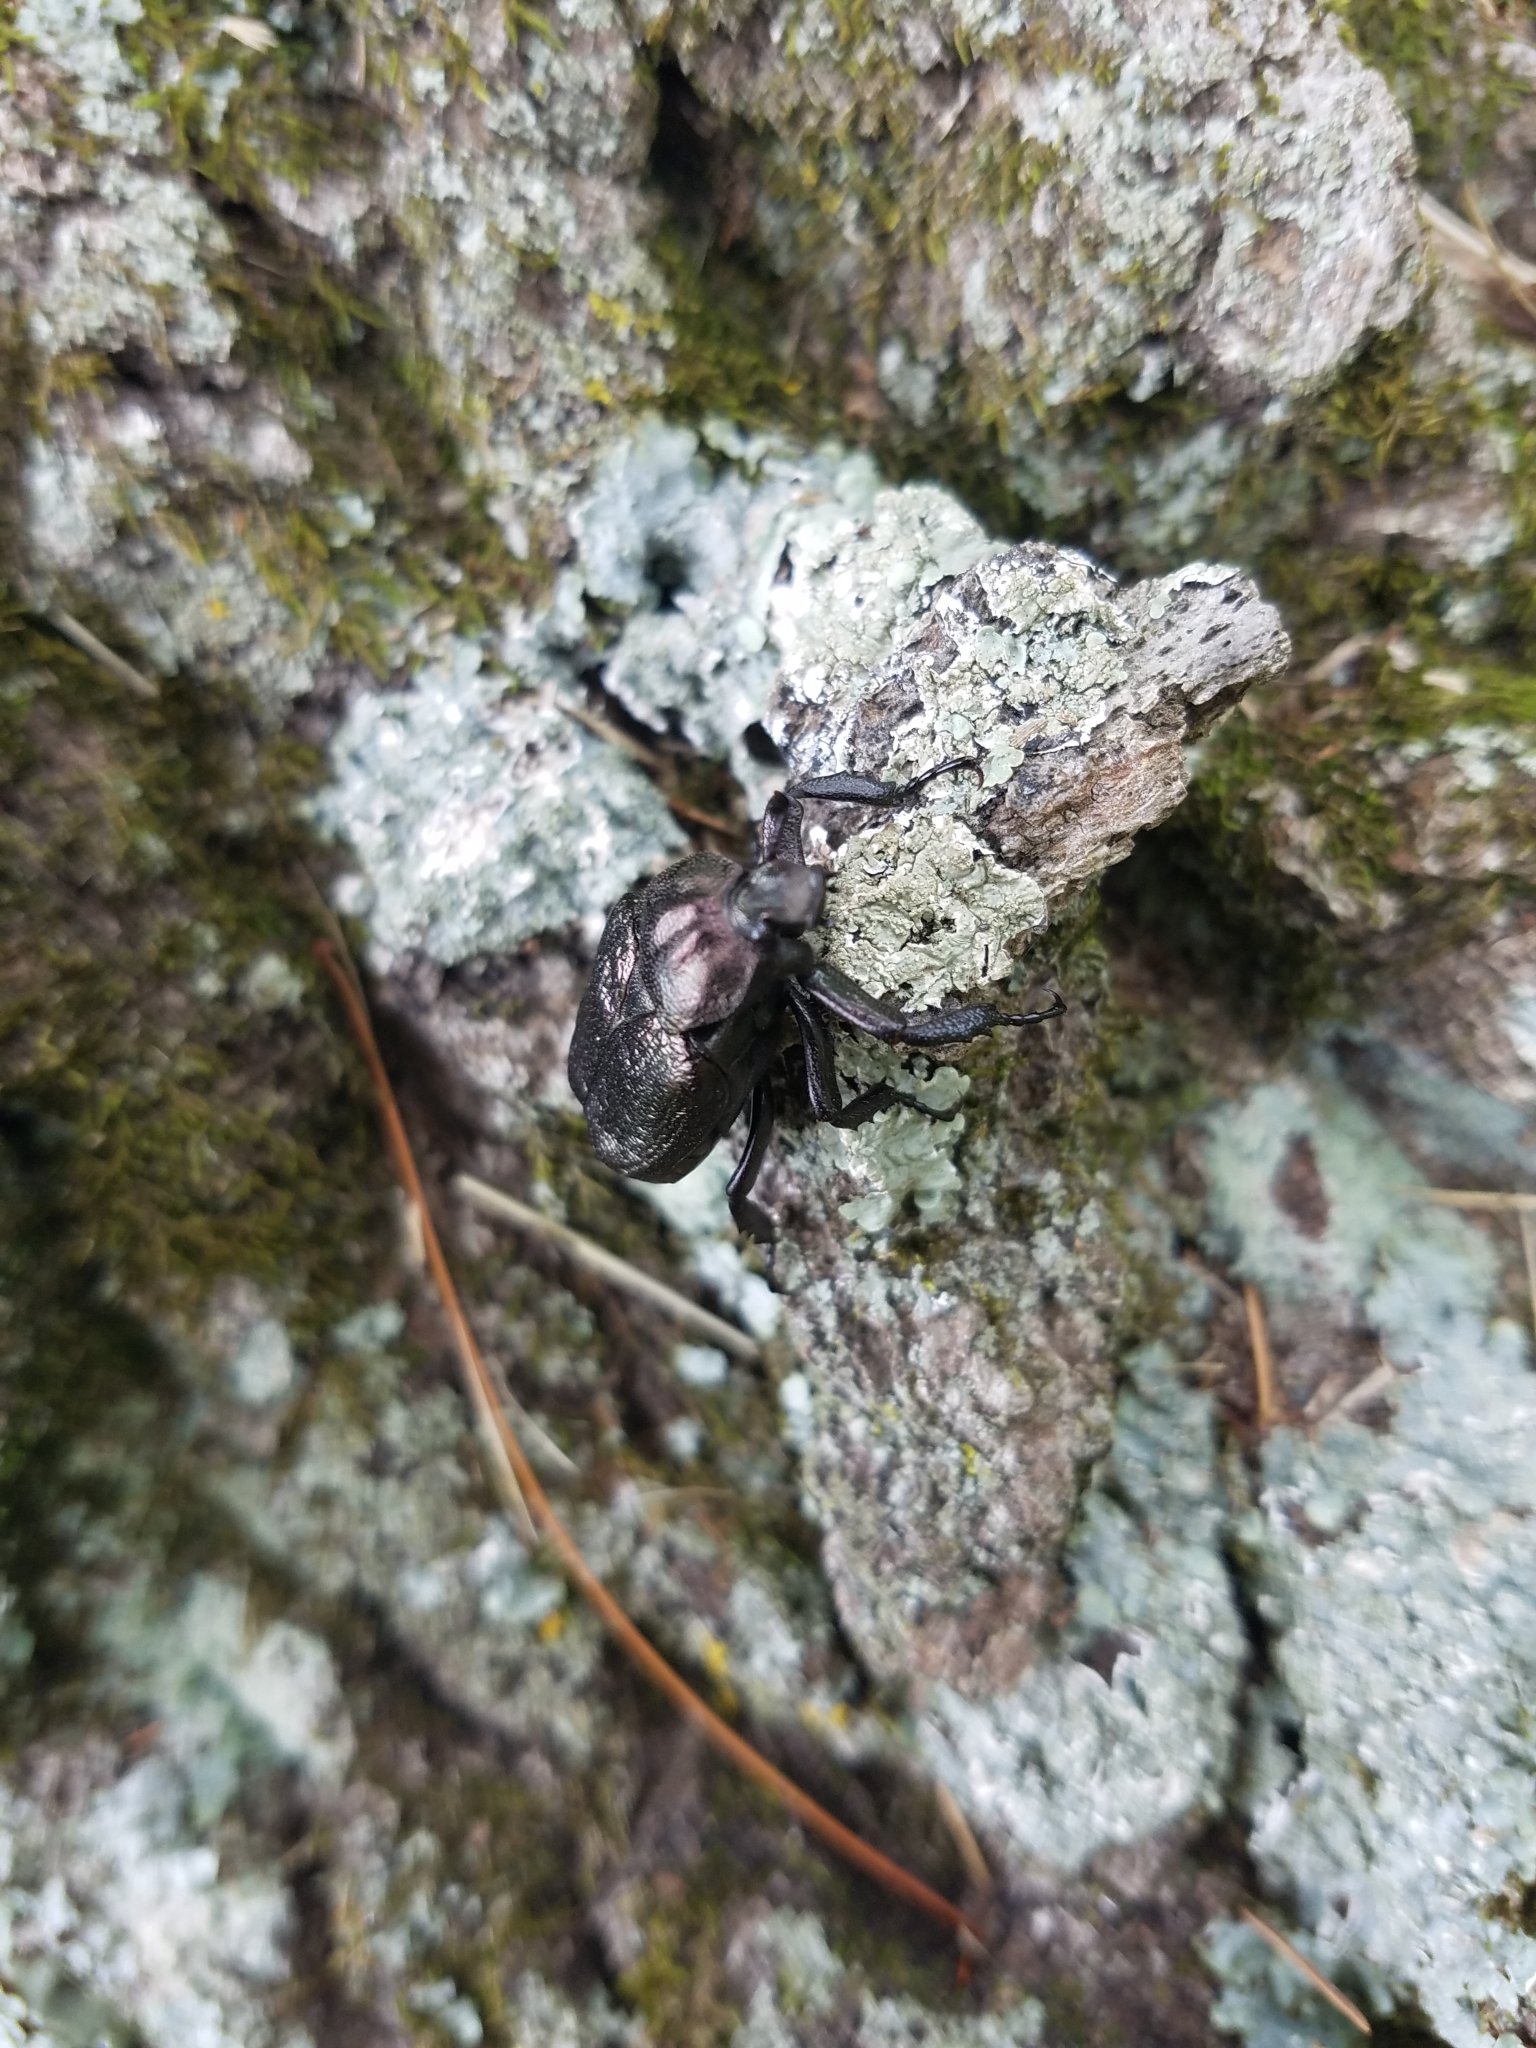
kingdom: Animalia
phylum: Arthropoda
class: Insecta
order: Coleoptera
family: Scarabaeidae
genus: Osmoderma
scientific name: Osmoderma scabra
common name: Rough hermit beetle
